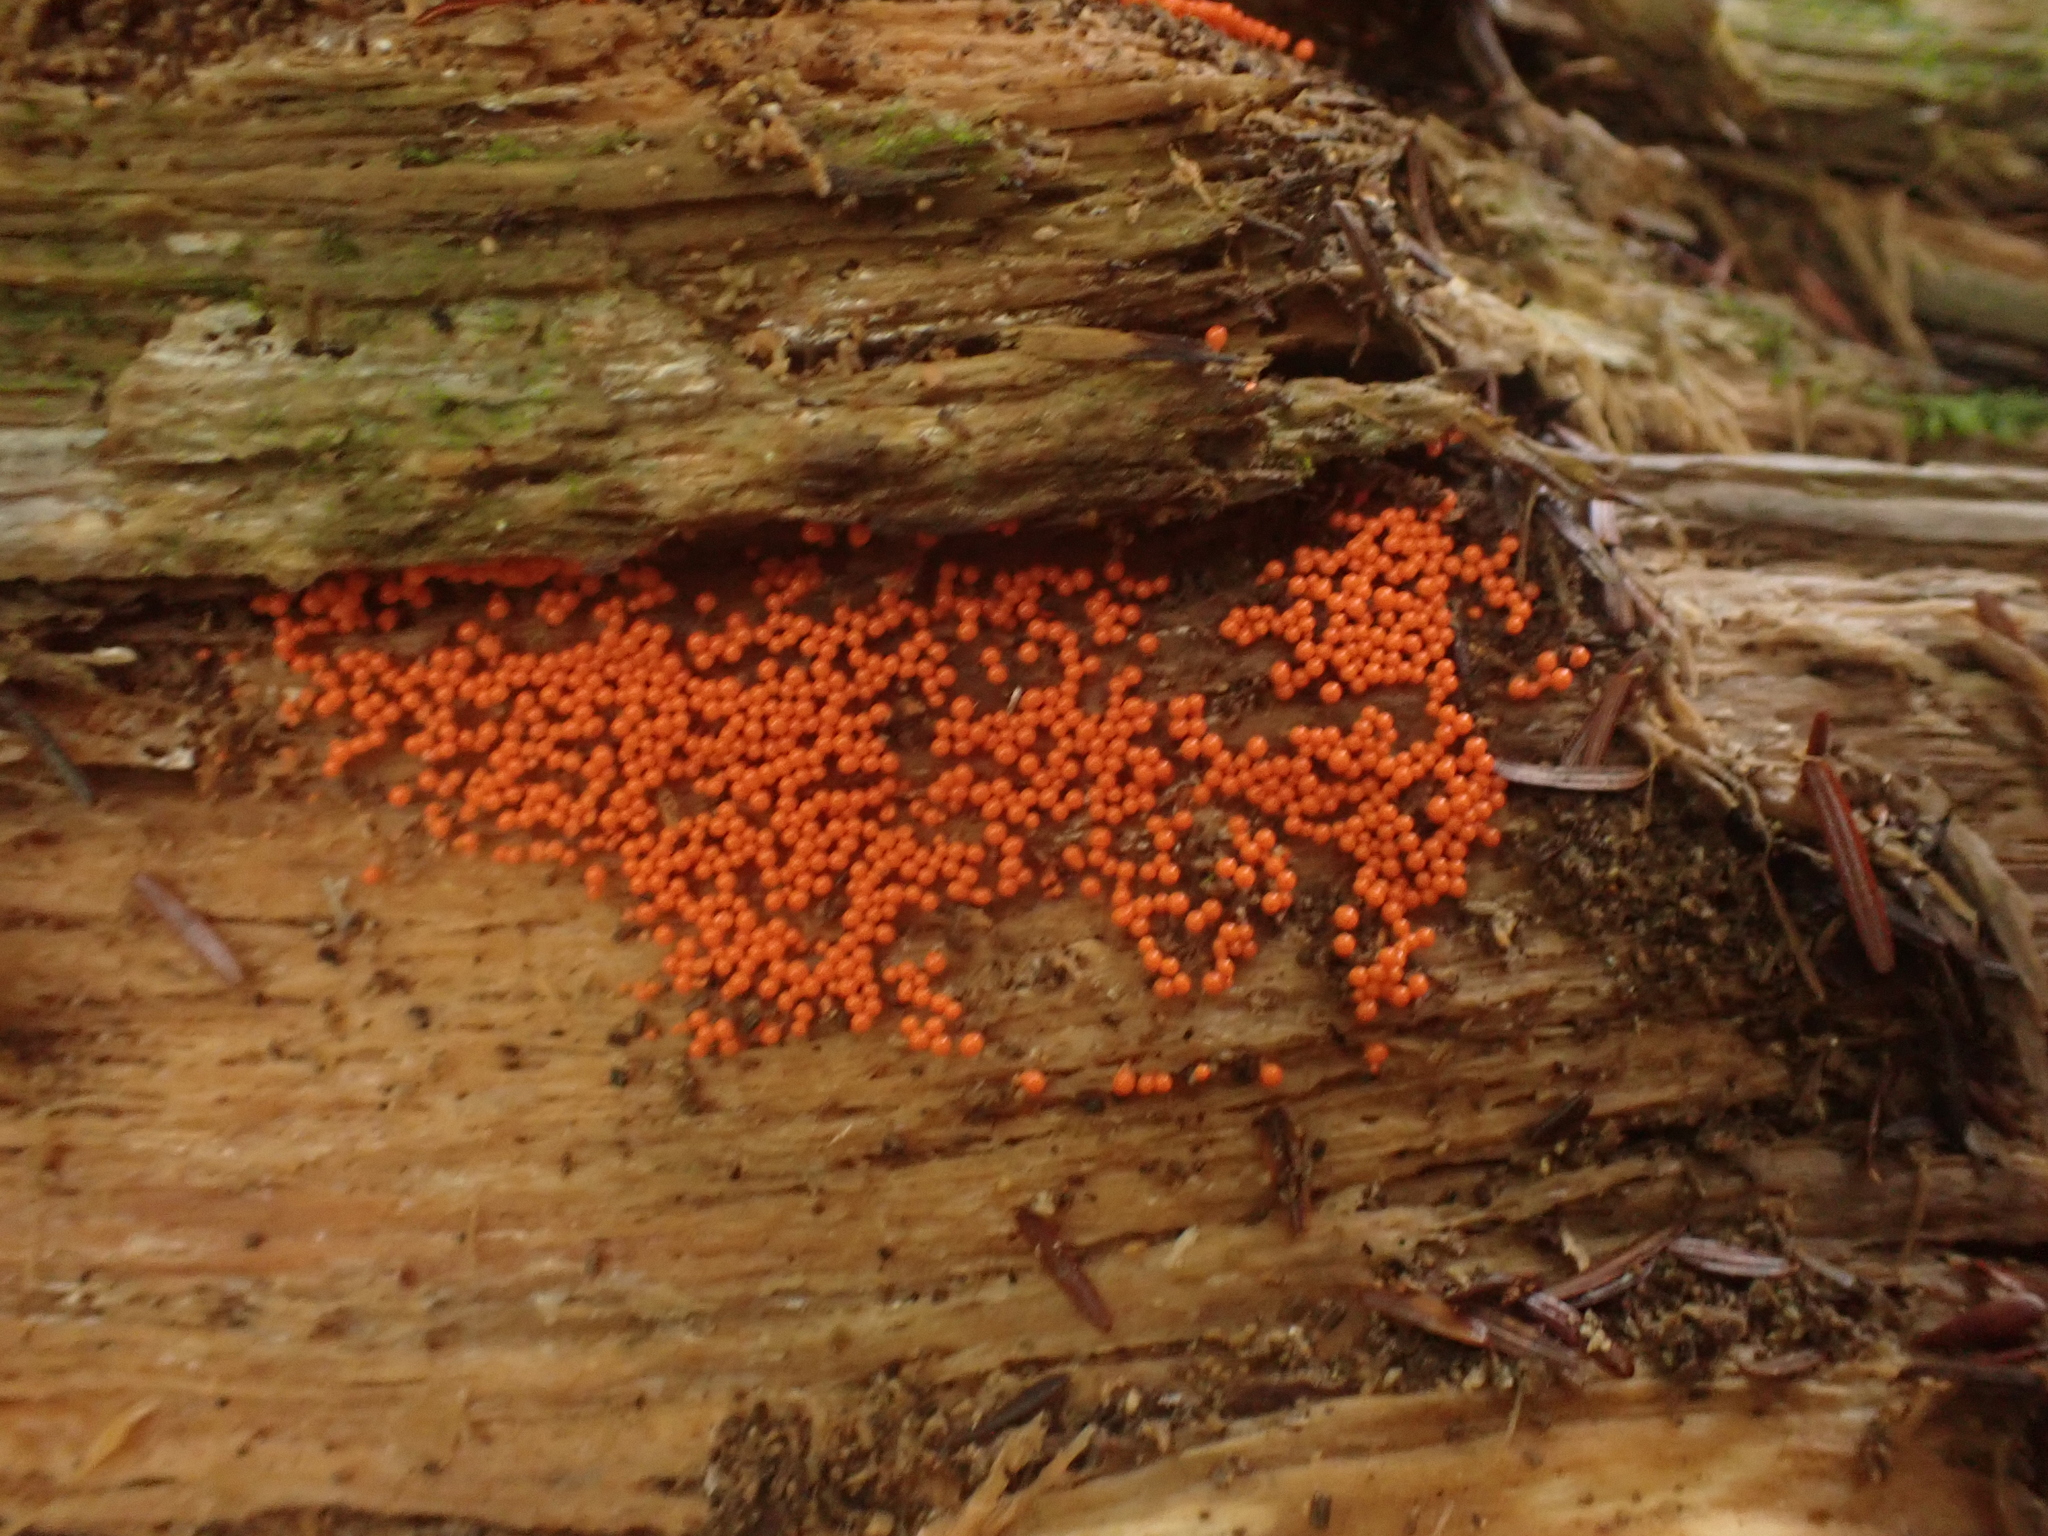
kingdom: Protozoa
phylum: Mycetozoa
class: Myxomycetes
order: Trichiales
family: Arcyriaceae
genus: Hemitrichia
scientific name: Hemitrichia decipiens
